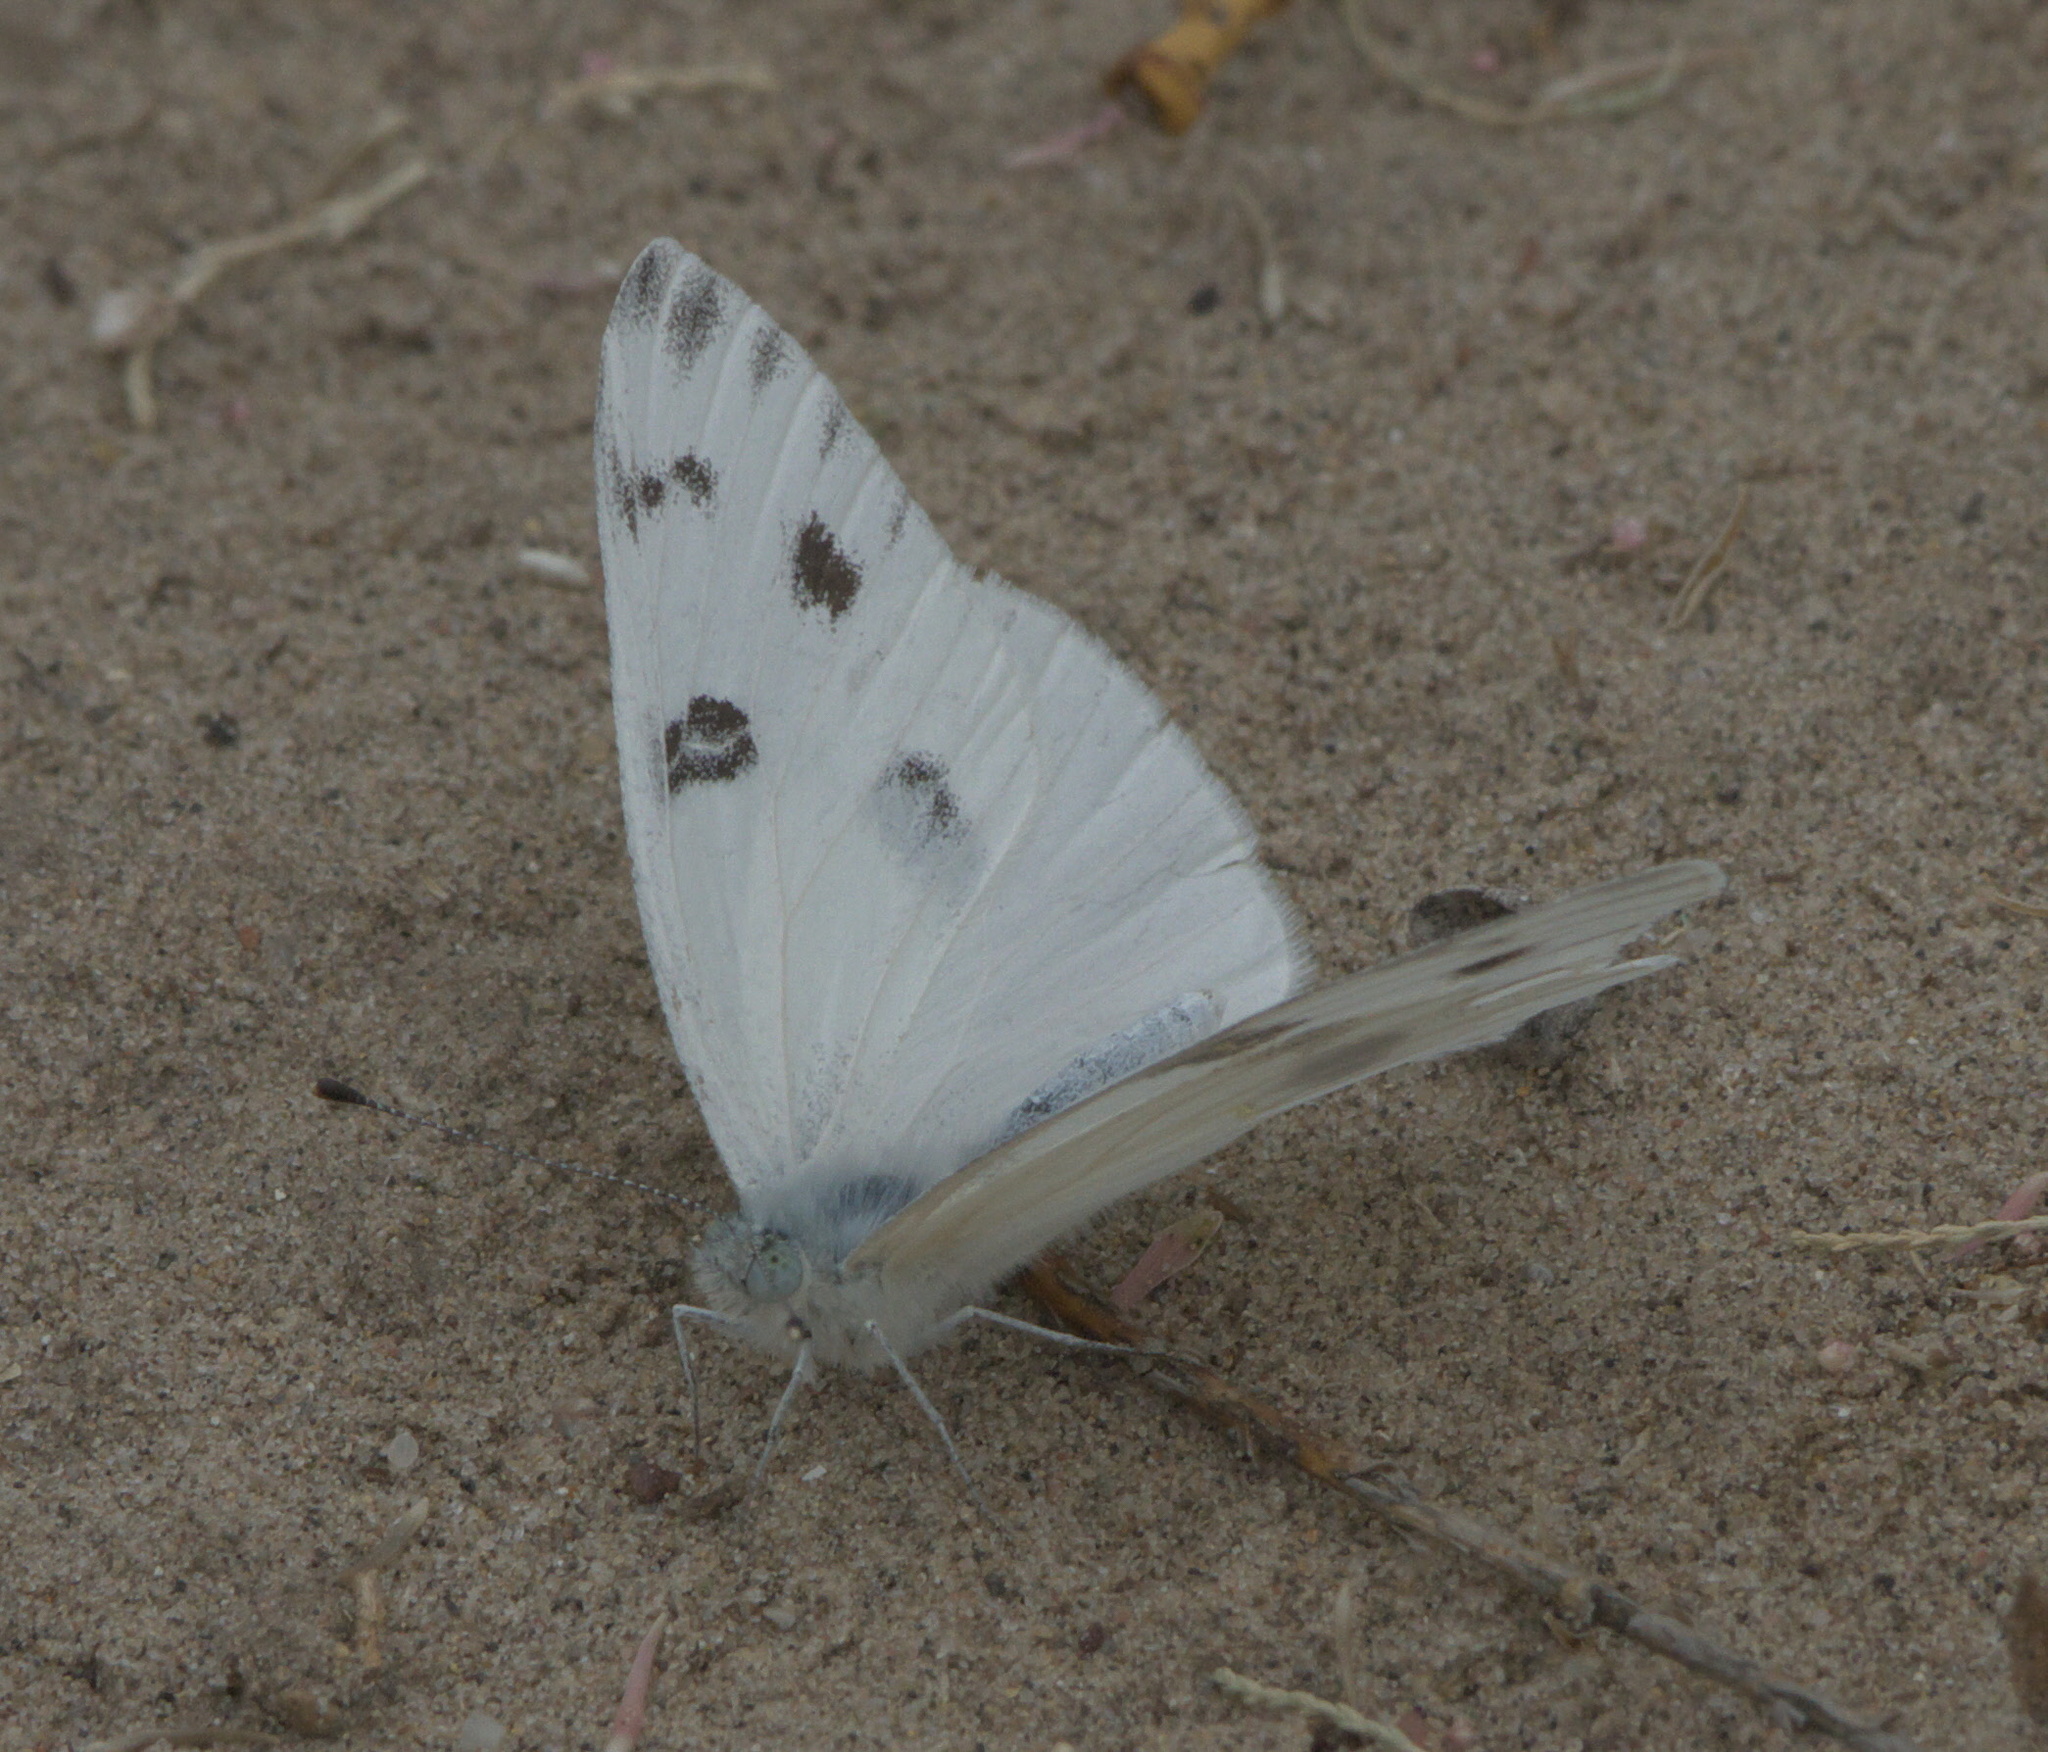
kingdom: Animalia
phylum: Arthropoda
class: Insecta
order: Lepidoptera
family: Pieridae
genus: Pontia
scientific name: Pontia protodice
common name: Checkered white
